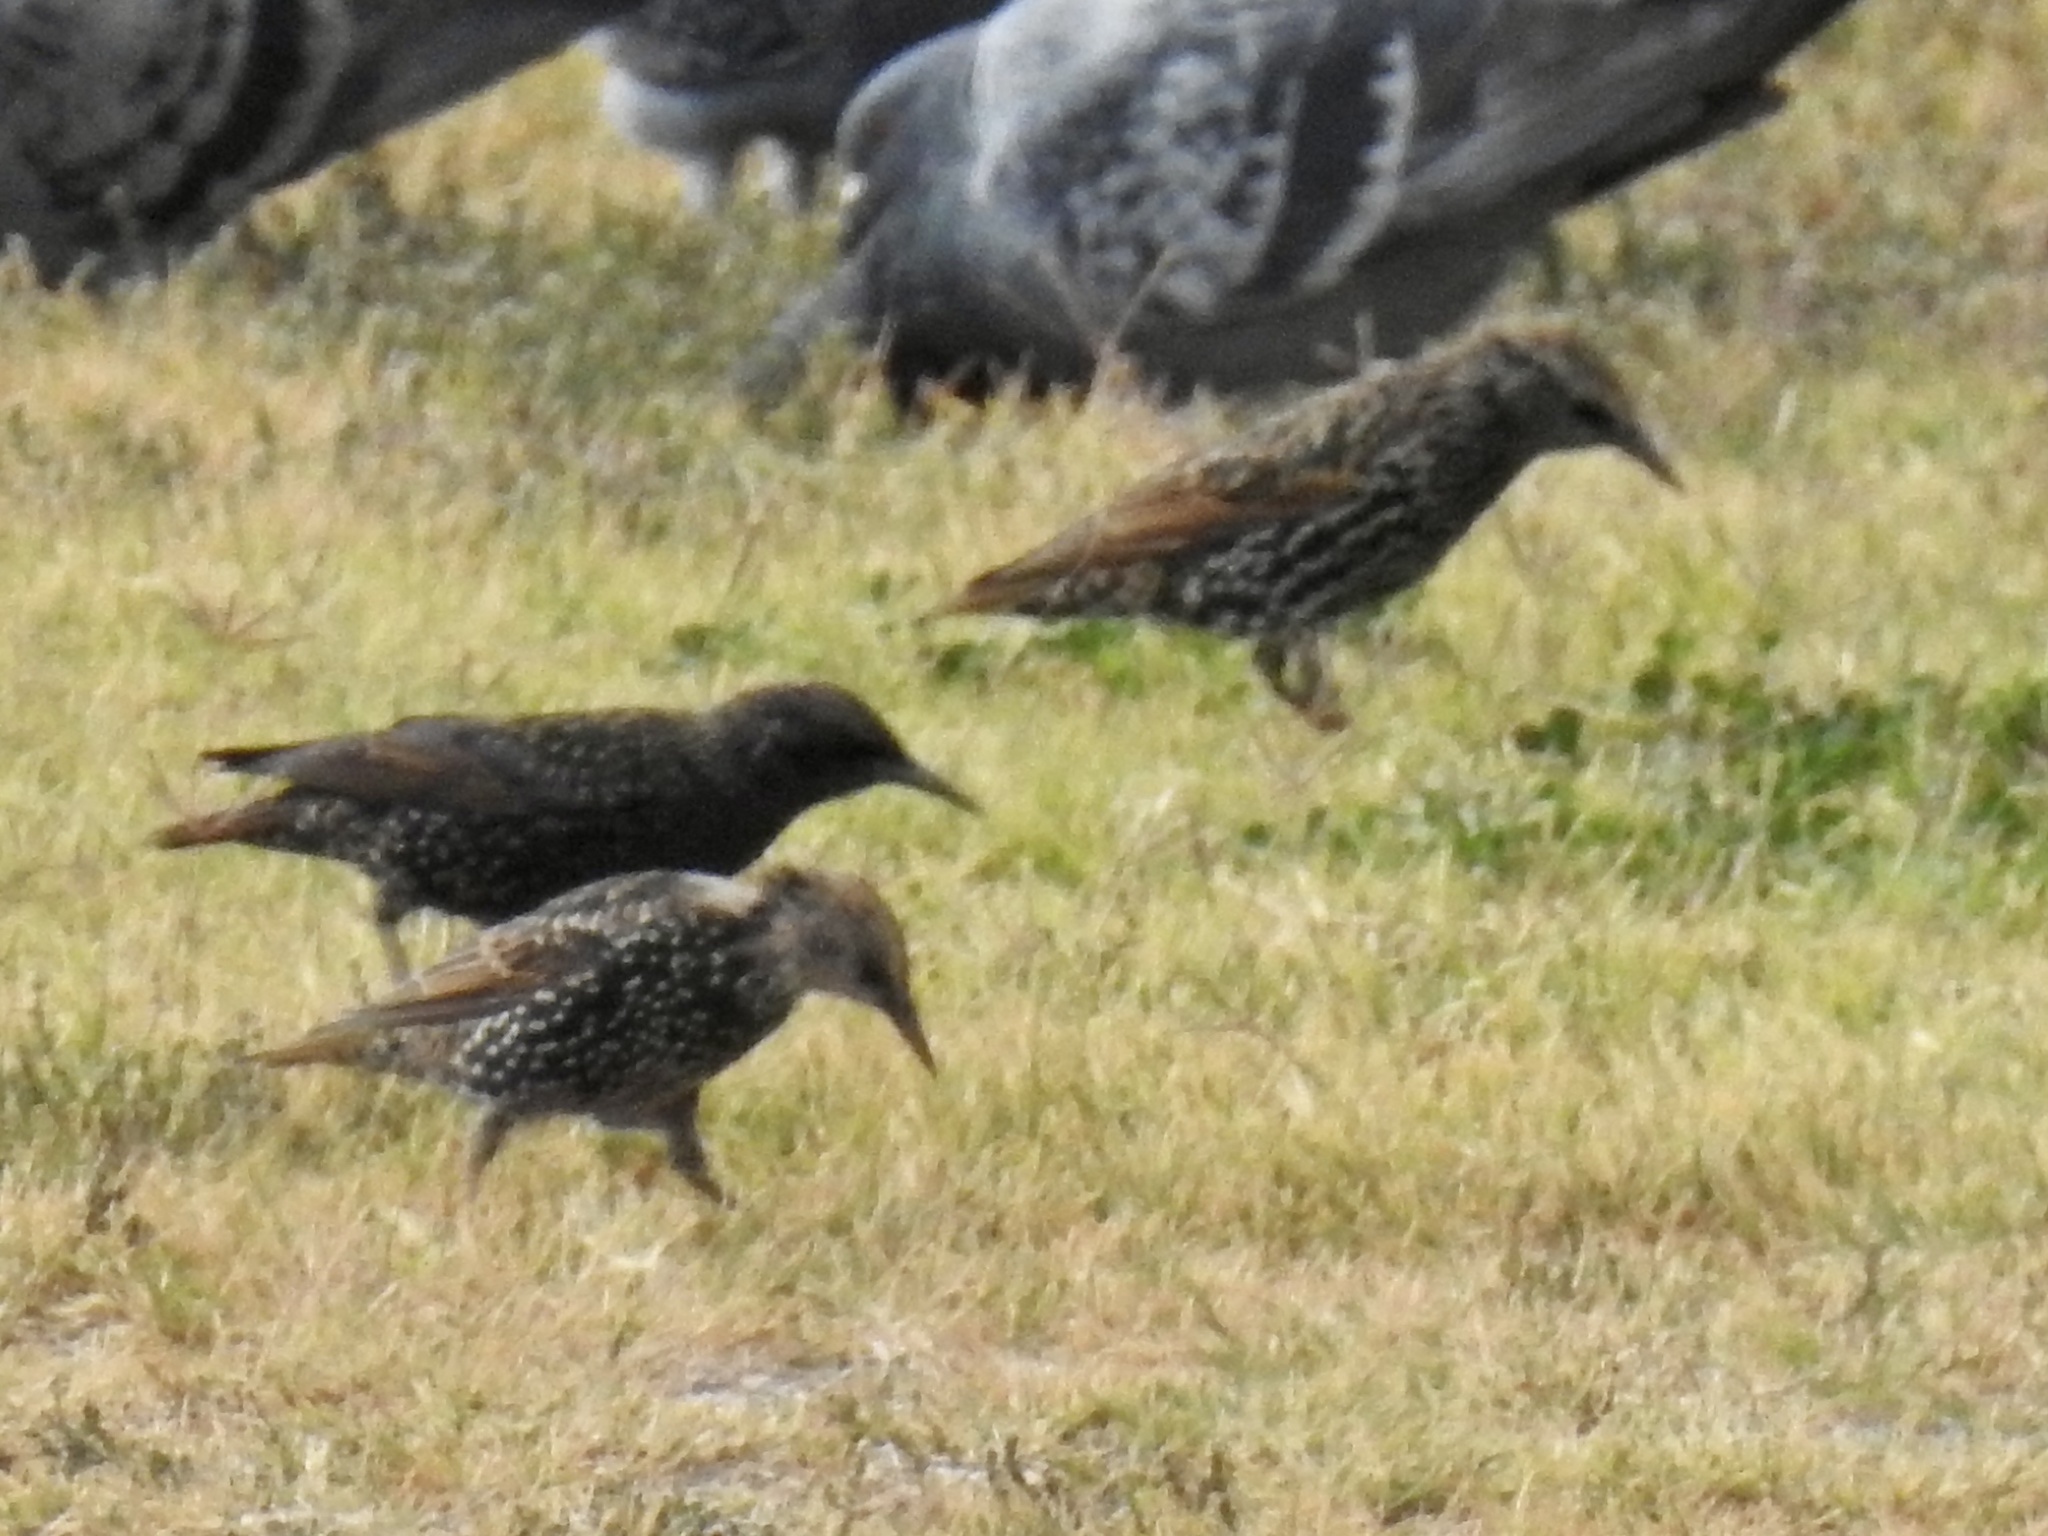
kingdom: Animalia
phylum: Chordata
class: Aves
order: Passeriformes
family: Sturnidae
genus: Sturnus
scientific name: Sturnus vulgaris
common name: Common starling
